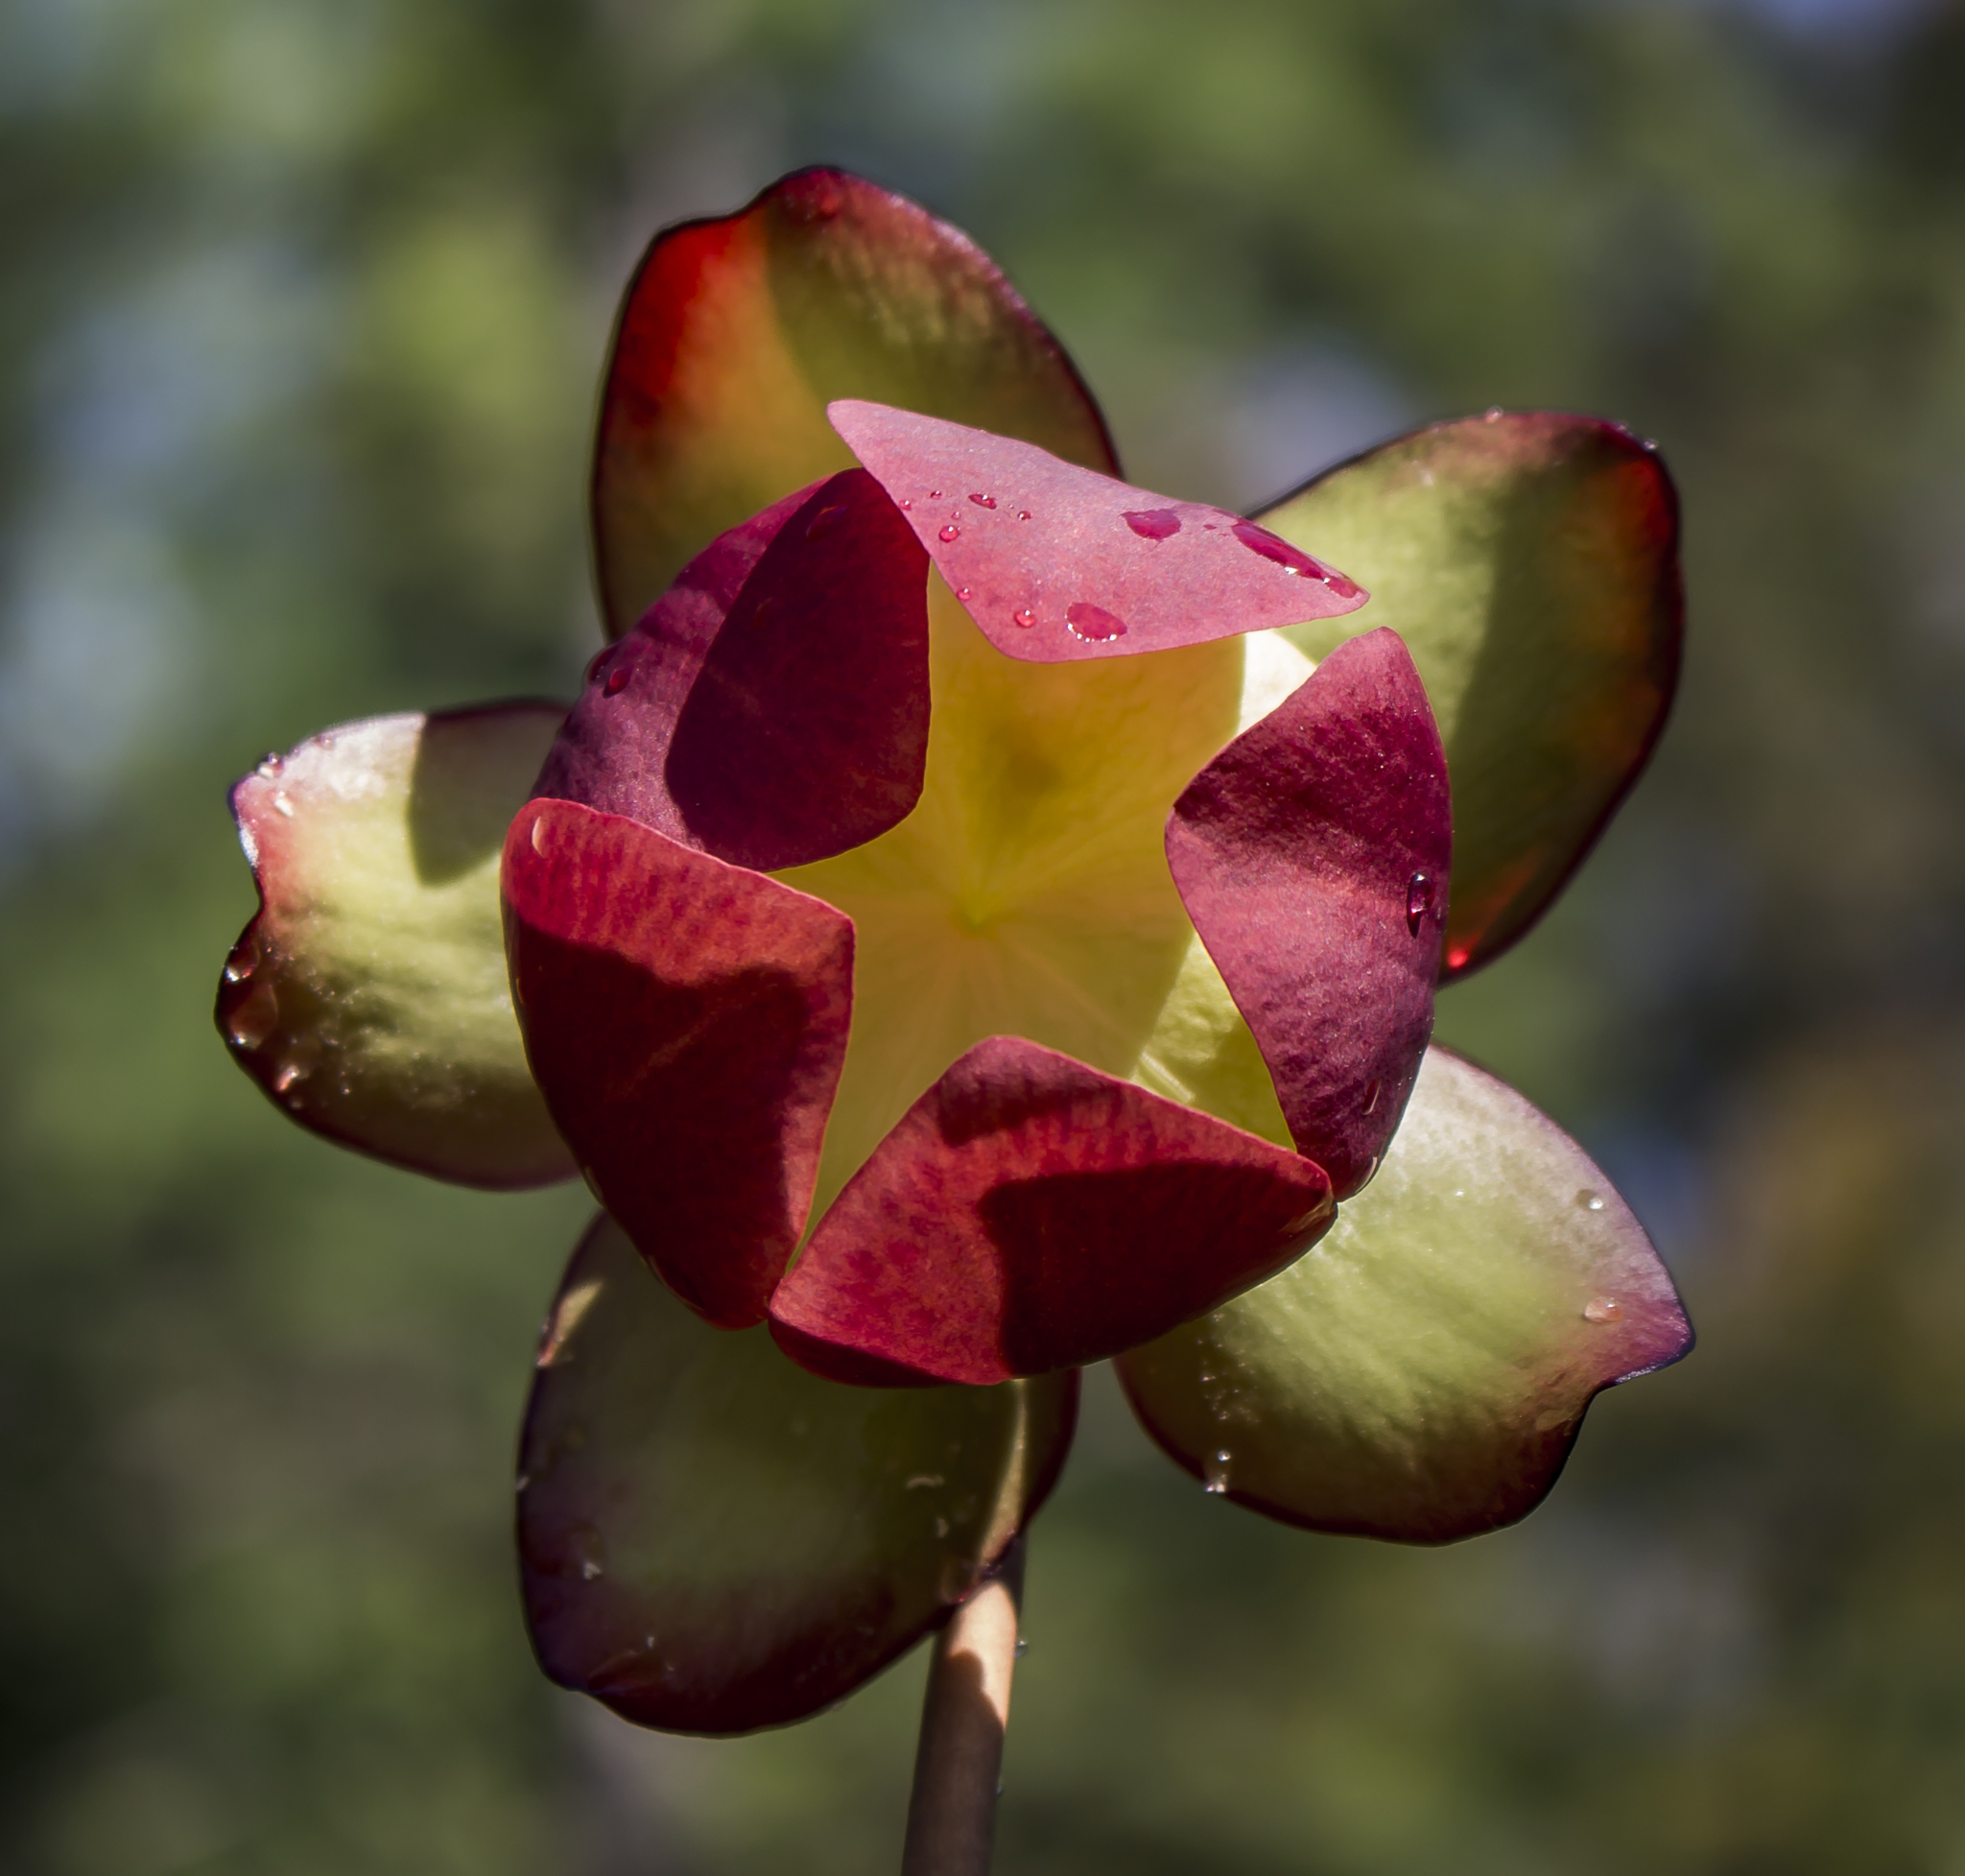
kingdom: Plantae
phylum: Tracheophyta
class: Magnoliopsida
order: Ericales
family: Sarraceniaceae
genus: Sarracenia
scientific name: Sarracenia purpurea
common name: Pitcherplant
